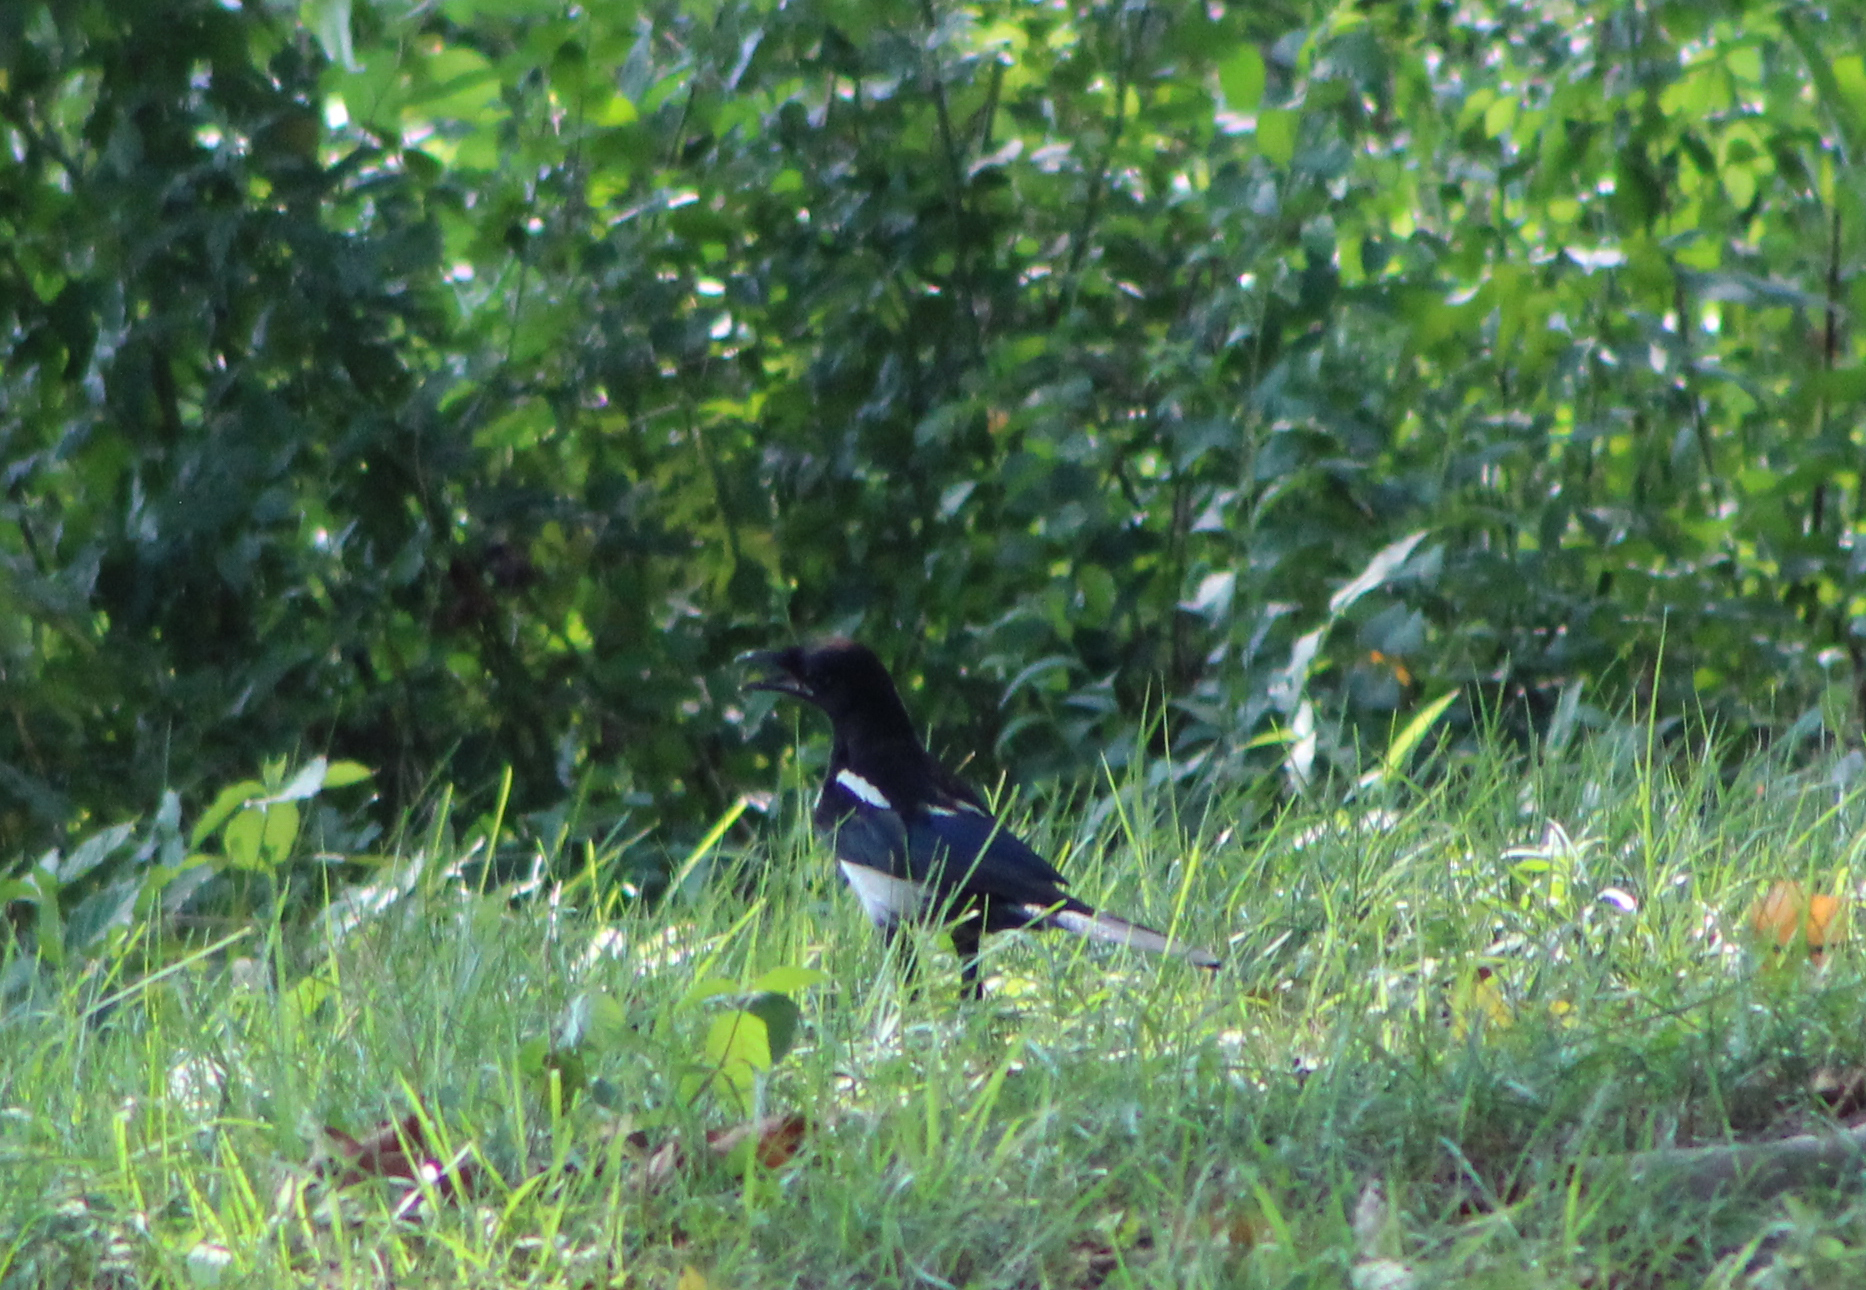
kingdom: Animalia
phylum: Chordata
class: Aves
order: Passeriformes
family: Corvidae
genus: Pica
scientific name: Pica serica
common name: Oriental magpie
